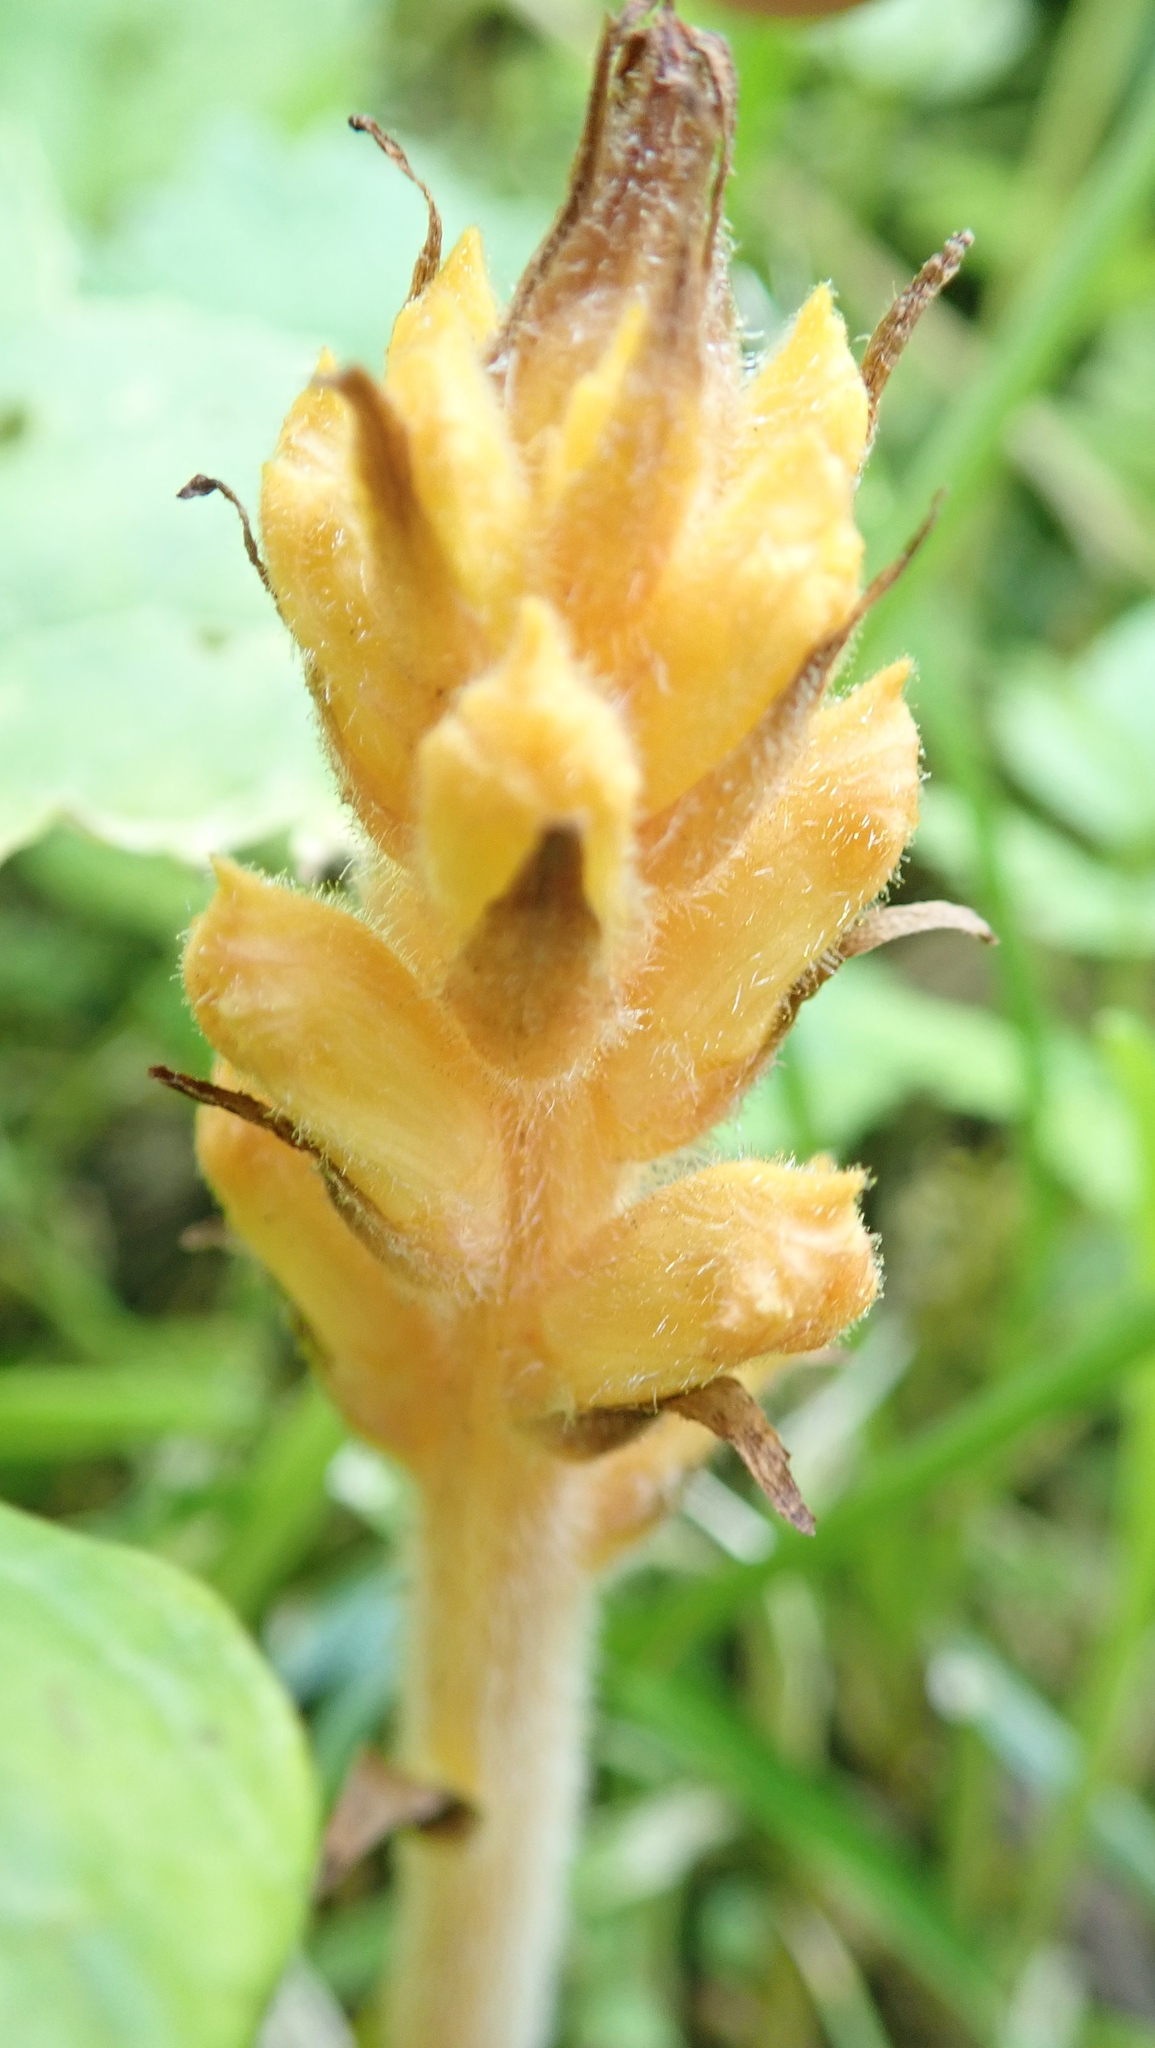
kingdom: Plantae
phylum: Tracheophyta
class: Magnoliopsida
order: Lamiales
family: Orobanchaceae
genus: Orobanche
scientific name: Orobanche flava
